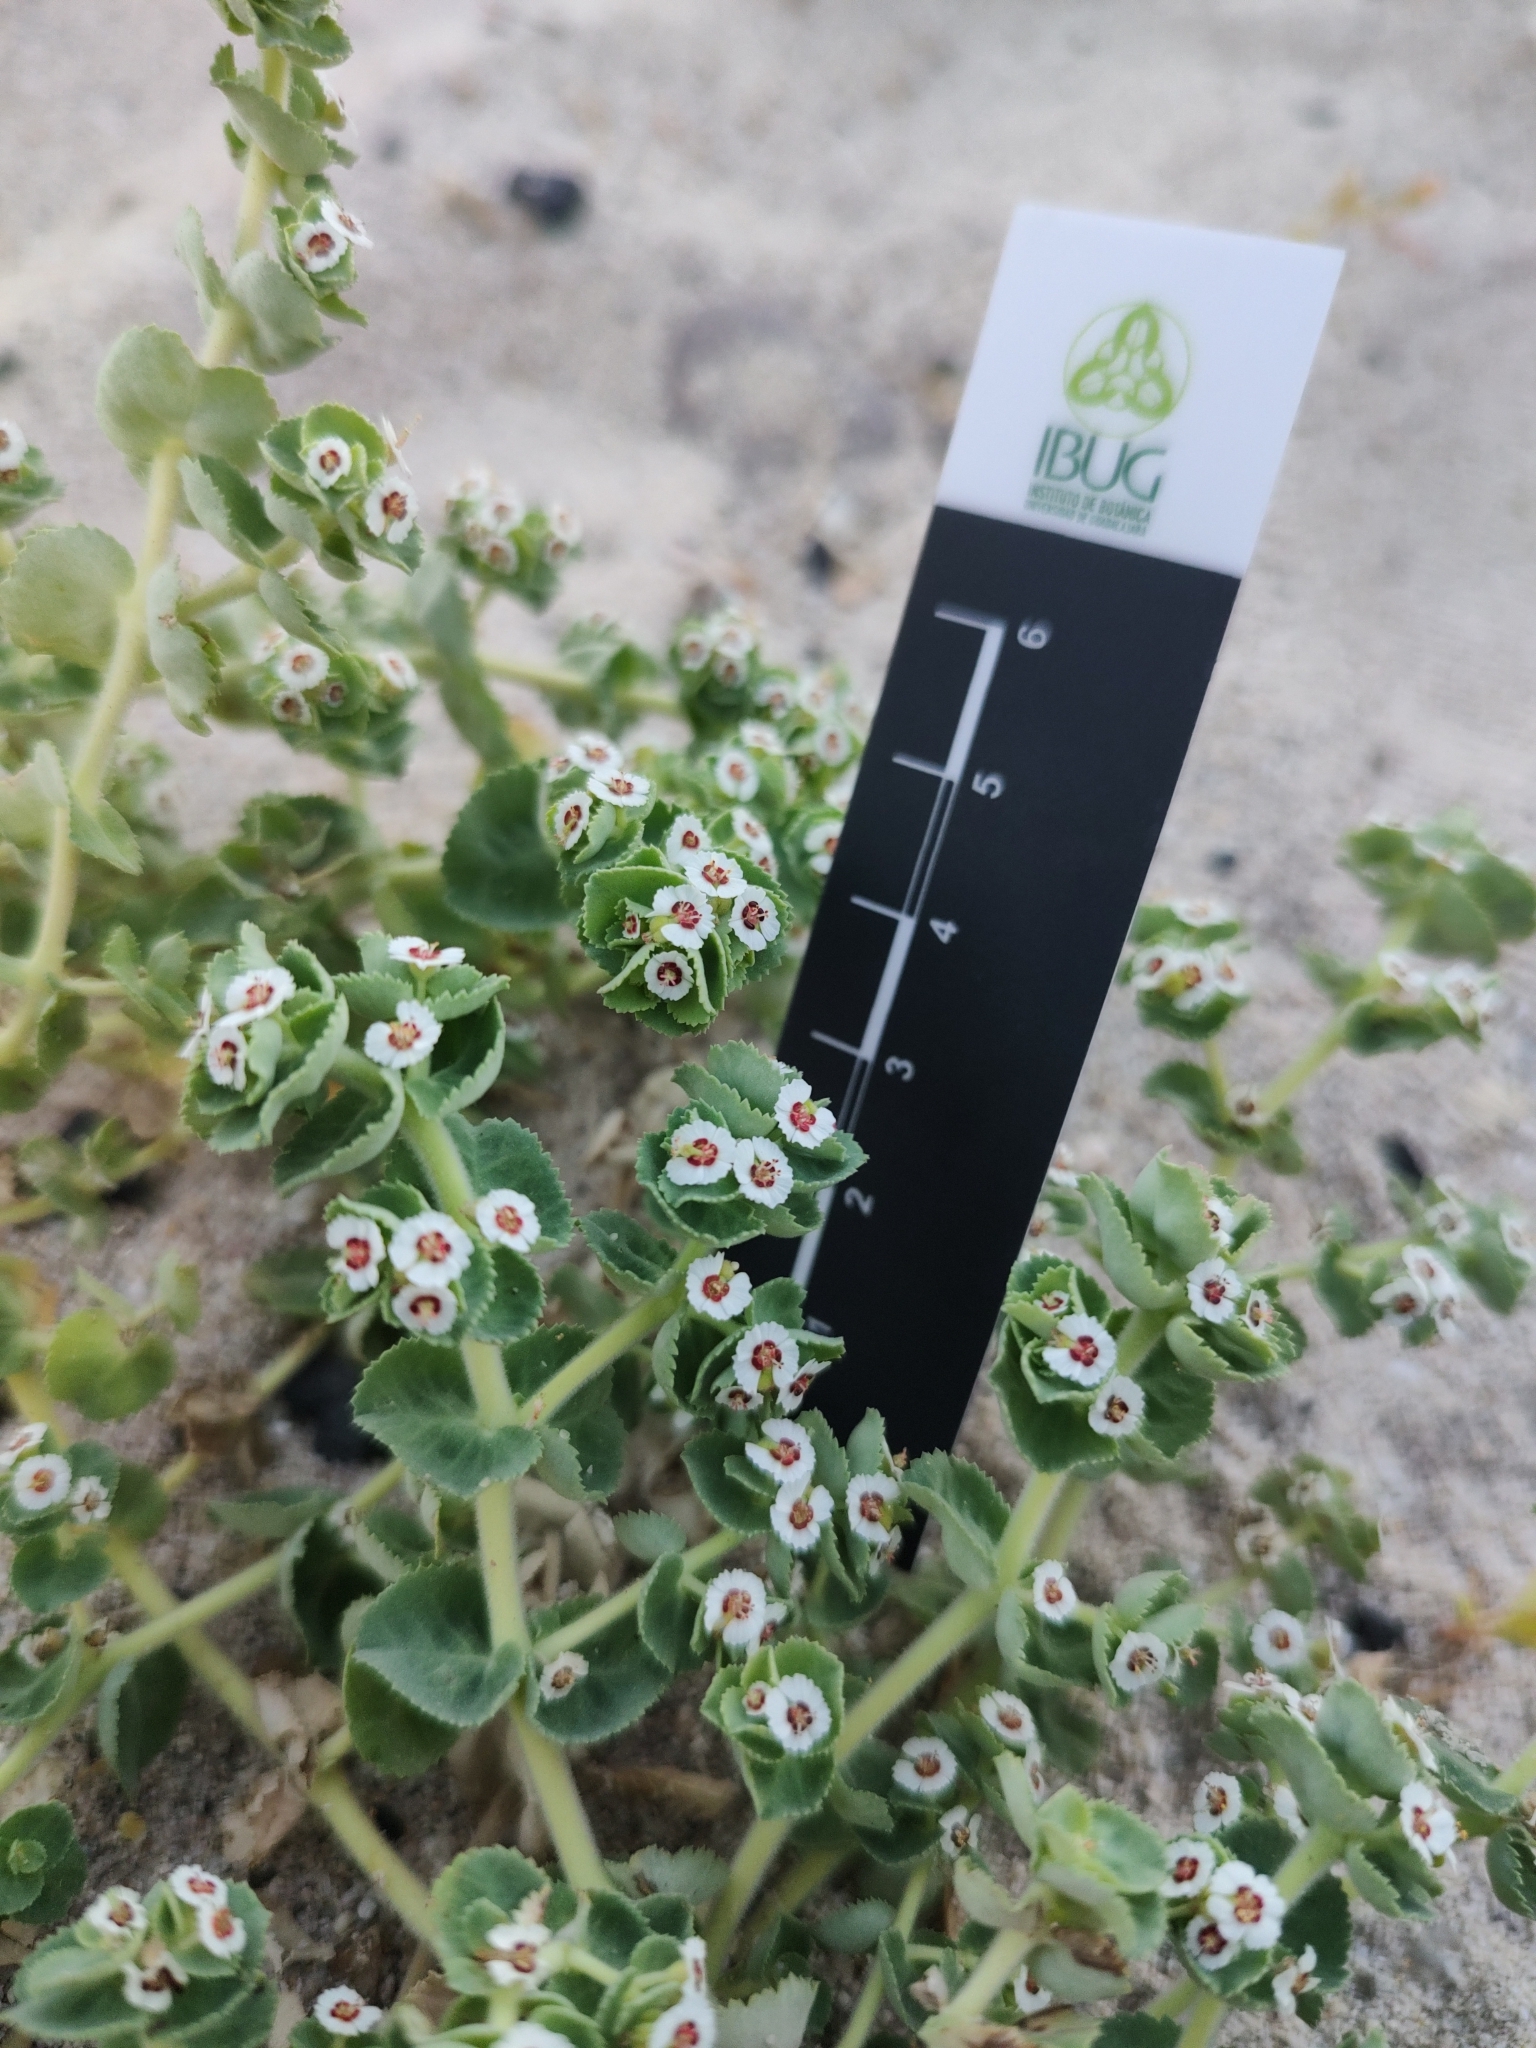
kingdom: Plantae
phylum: Tracheophyta
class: Magnoliopsida
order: Malpighiales
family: Euphorbiaceae
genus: Euphorbia
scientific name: Euphorbia leucophylla
